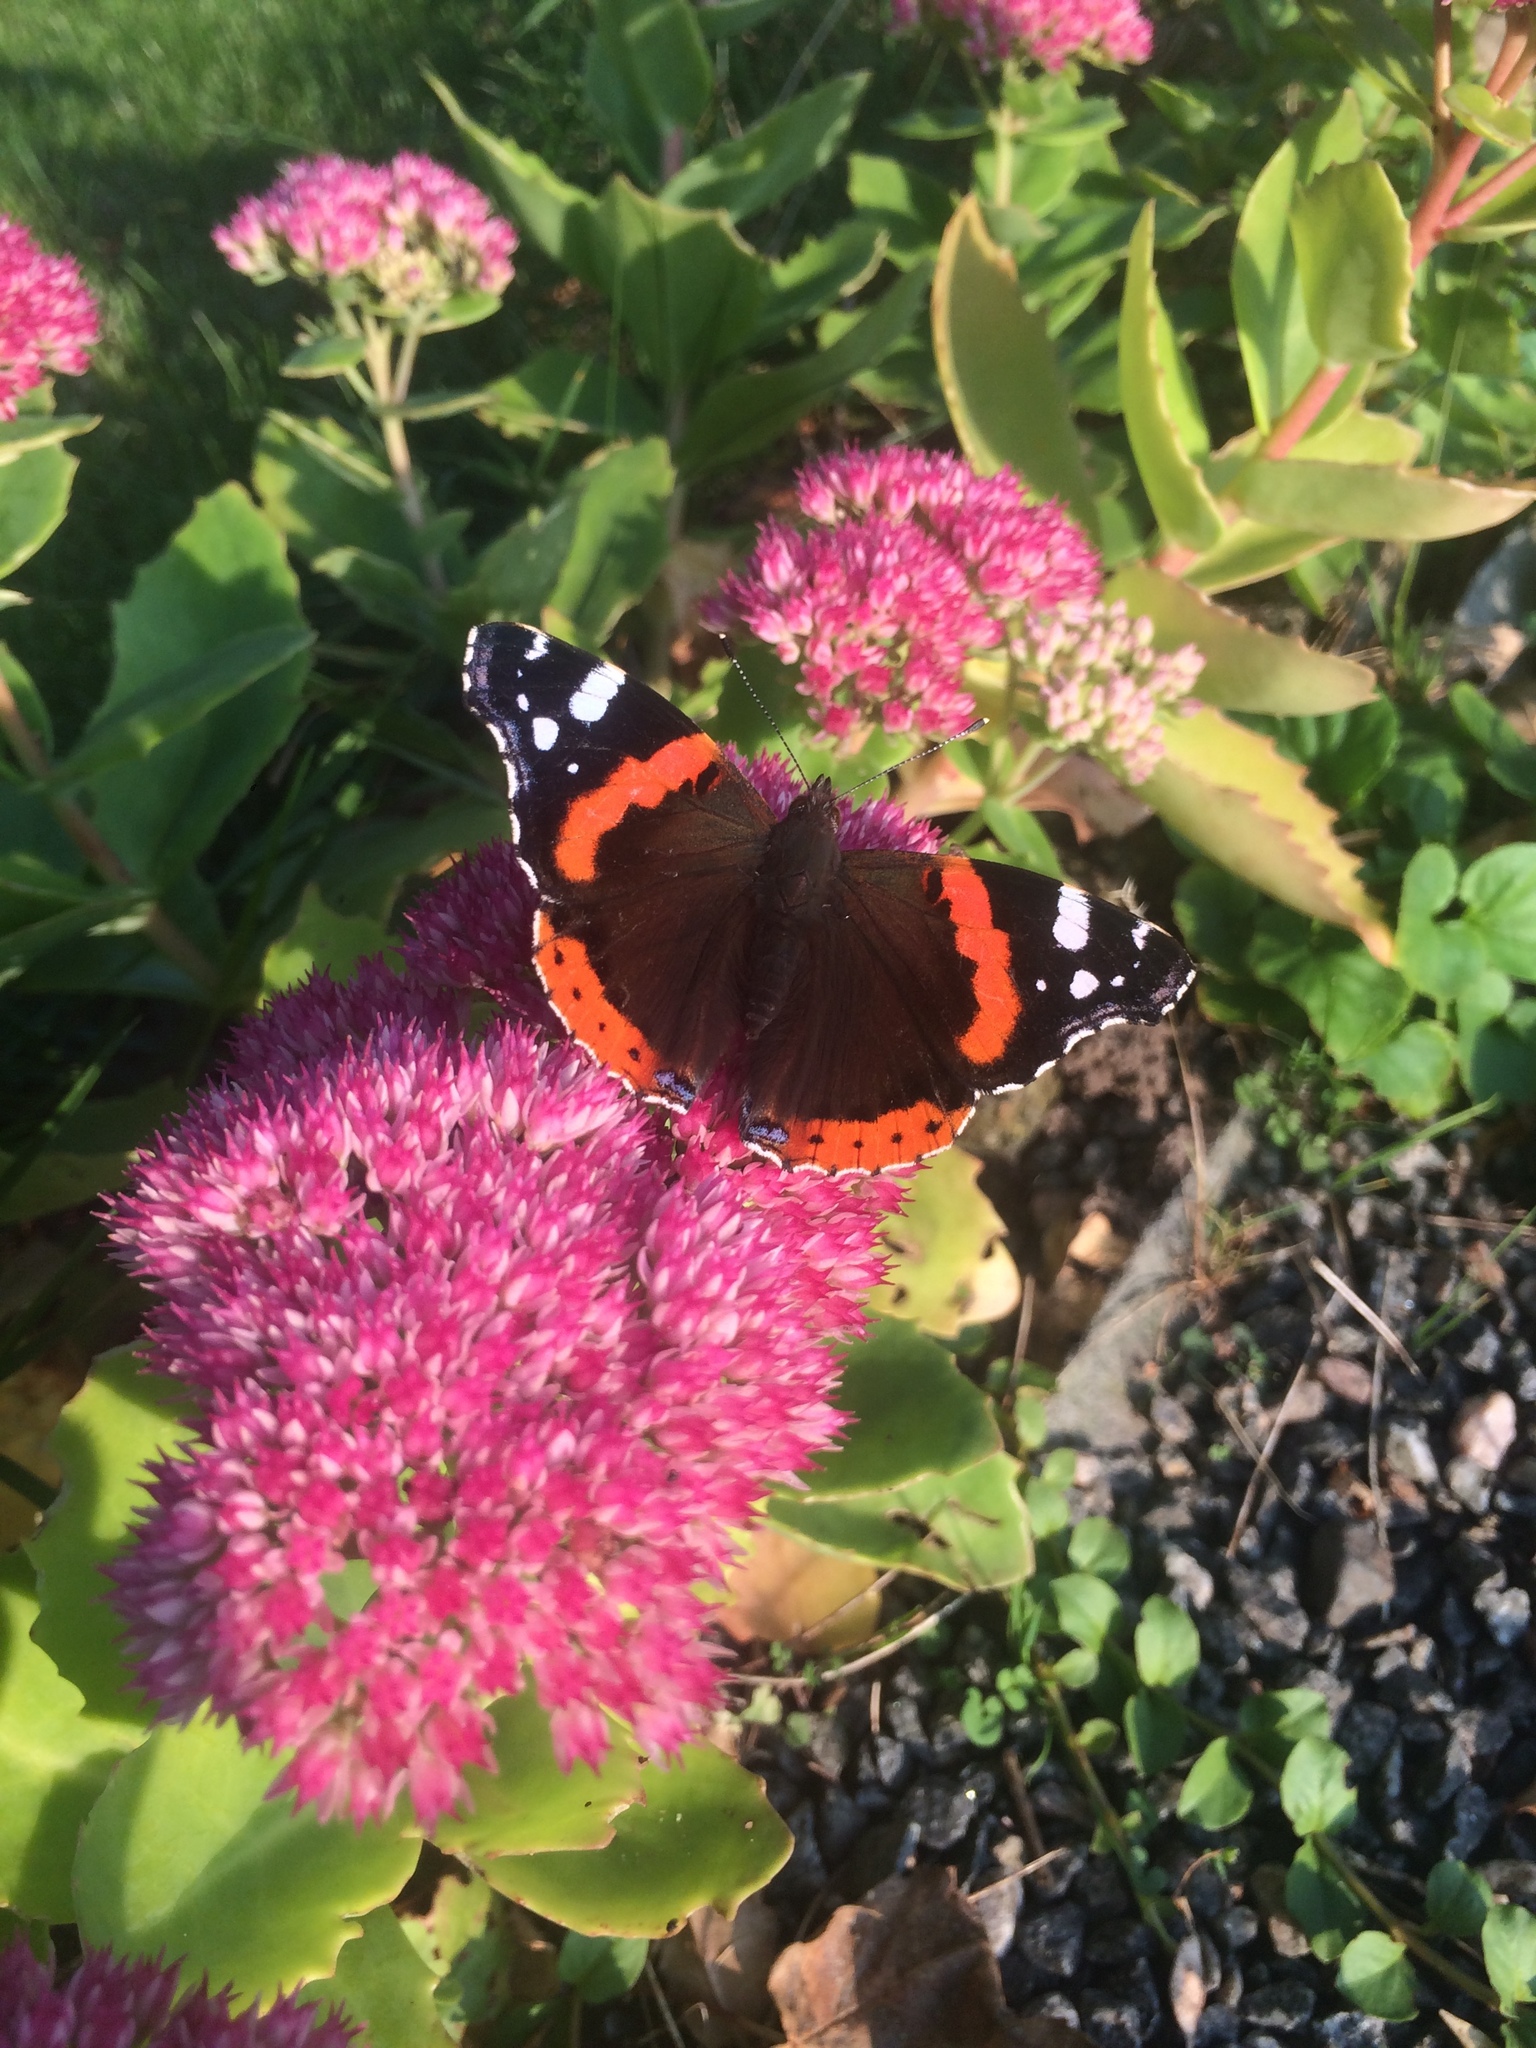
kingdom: Animalia
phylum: Arthropoda
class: Insecta
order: Lepidoptera
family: Nymphalidae
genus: Vanessa
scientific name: Vanessa atalanta
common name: Red admiral
